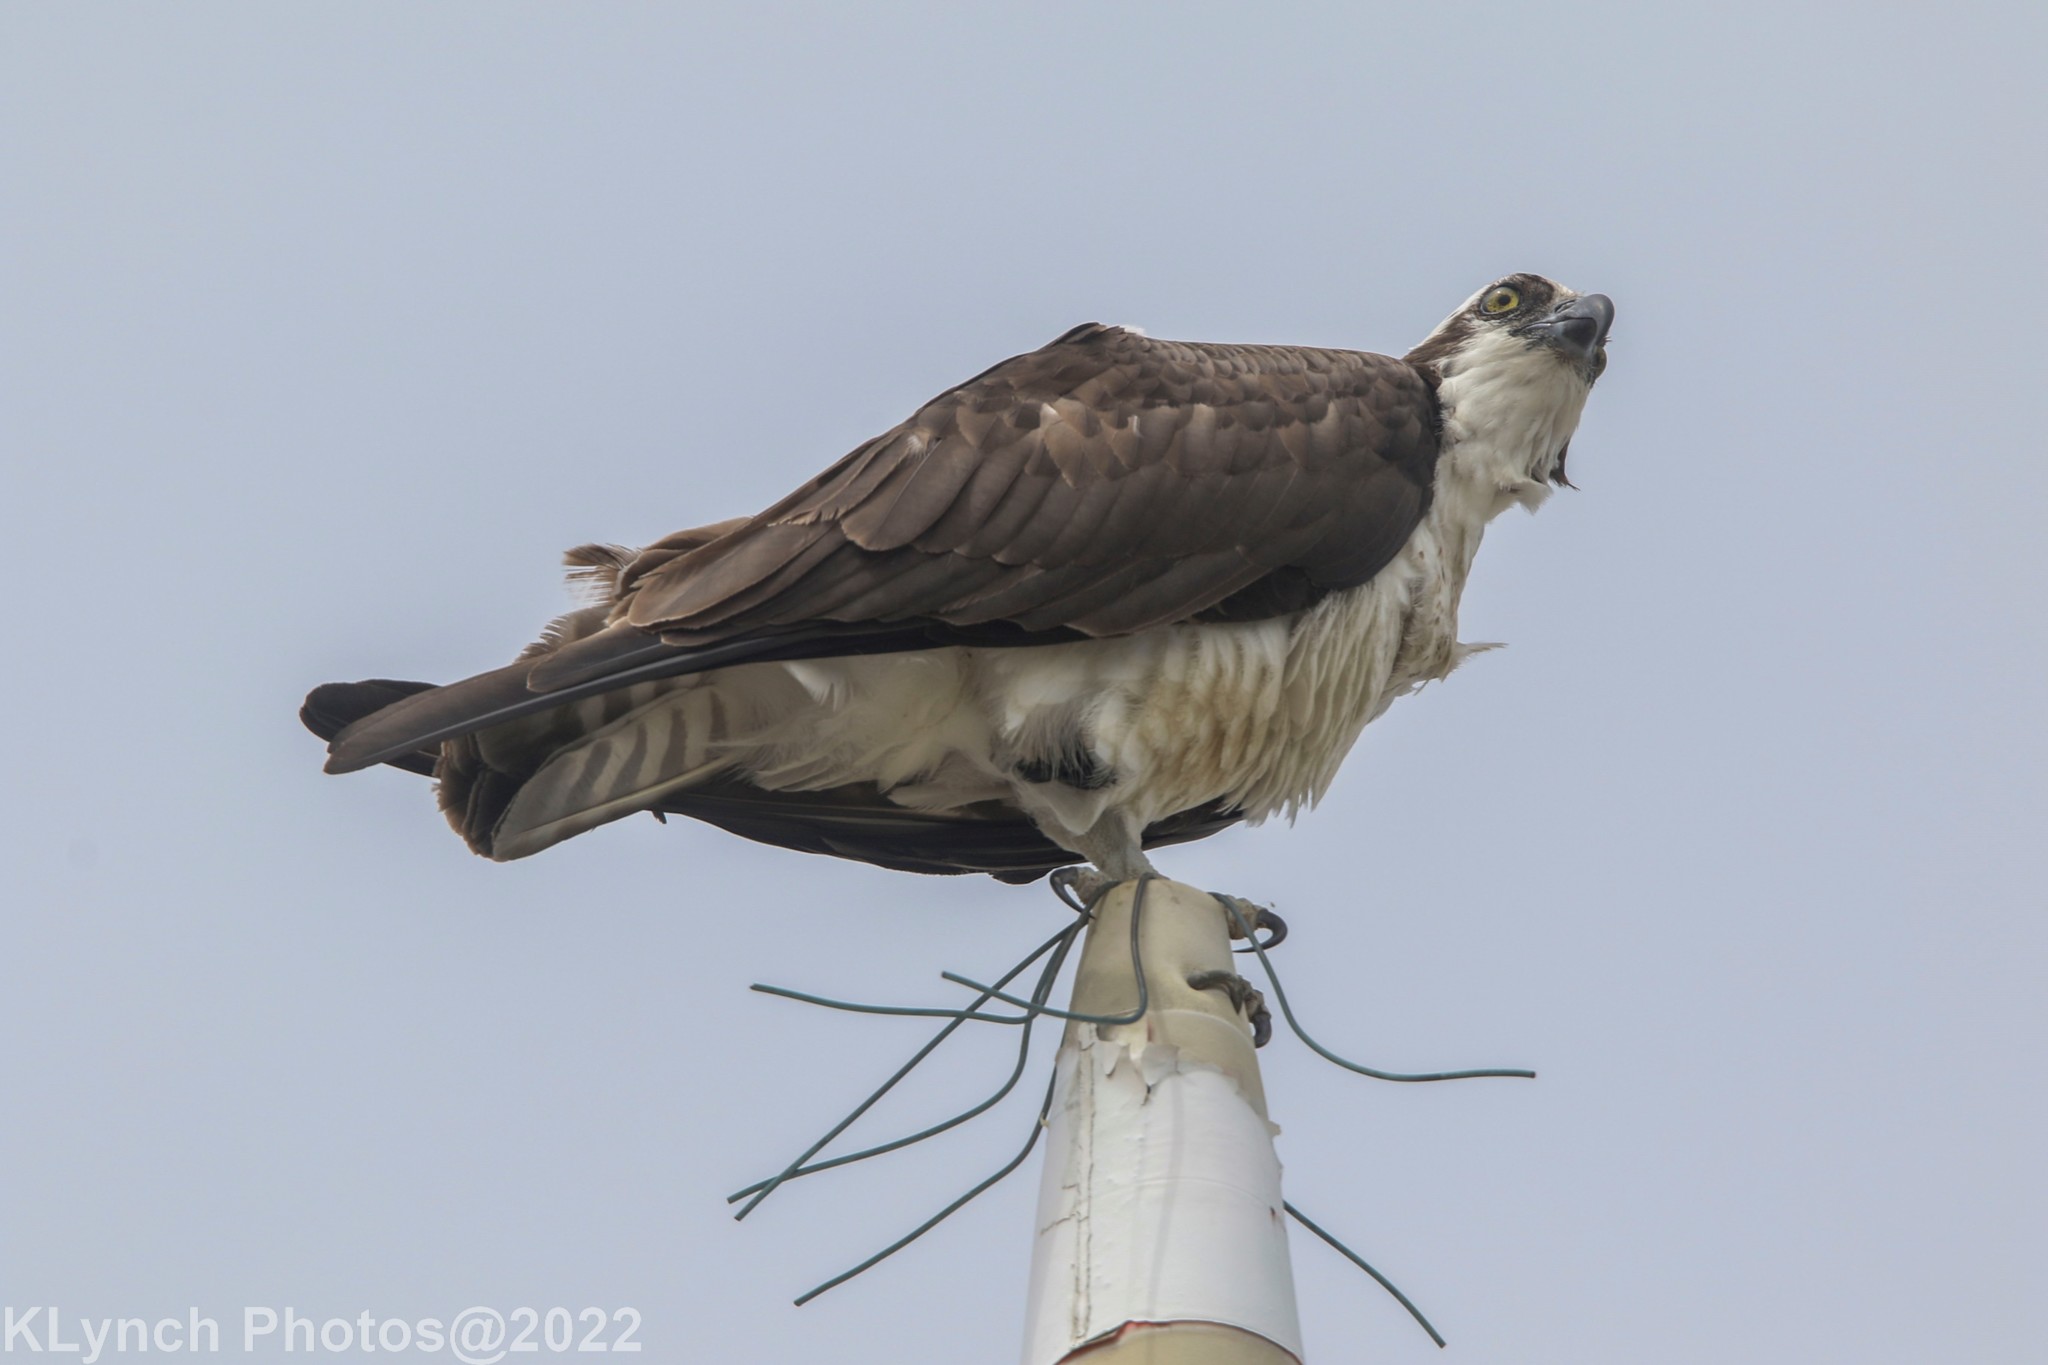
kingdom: Animalia
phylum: Chordata
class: Aves
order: Accipitriformes
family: Pandionidae
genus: Pandion
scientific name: Pandion haliaetus
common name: Osprey
